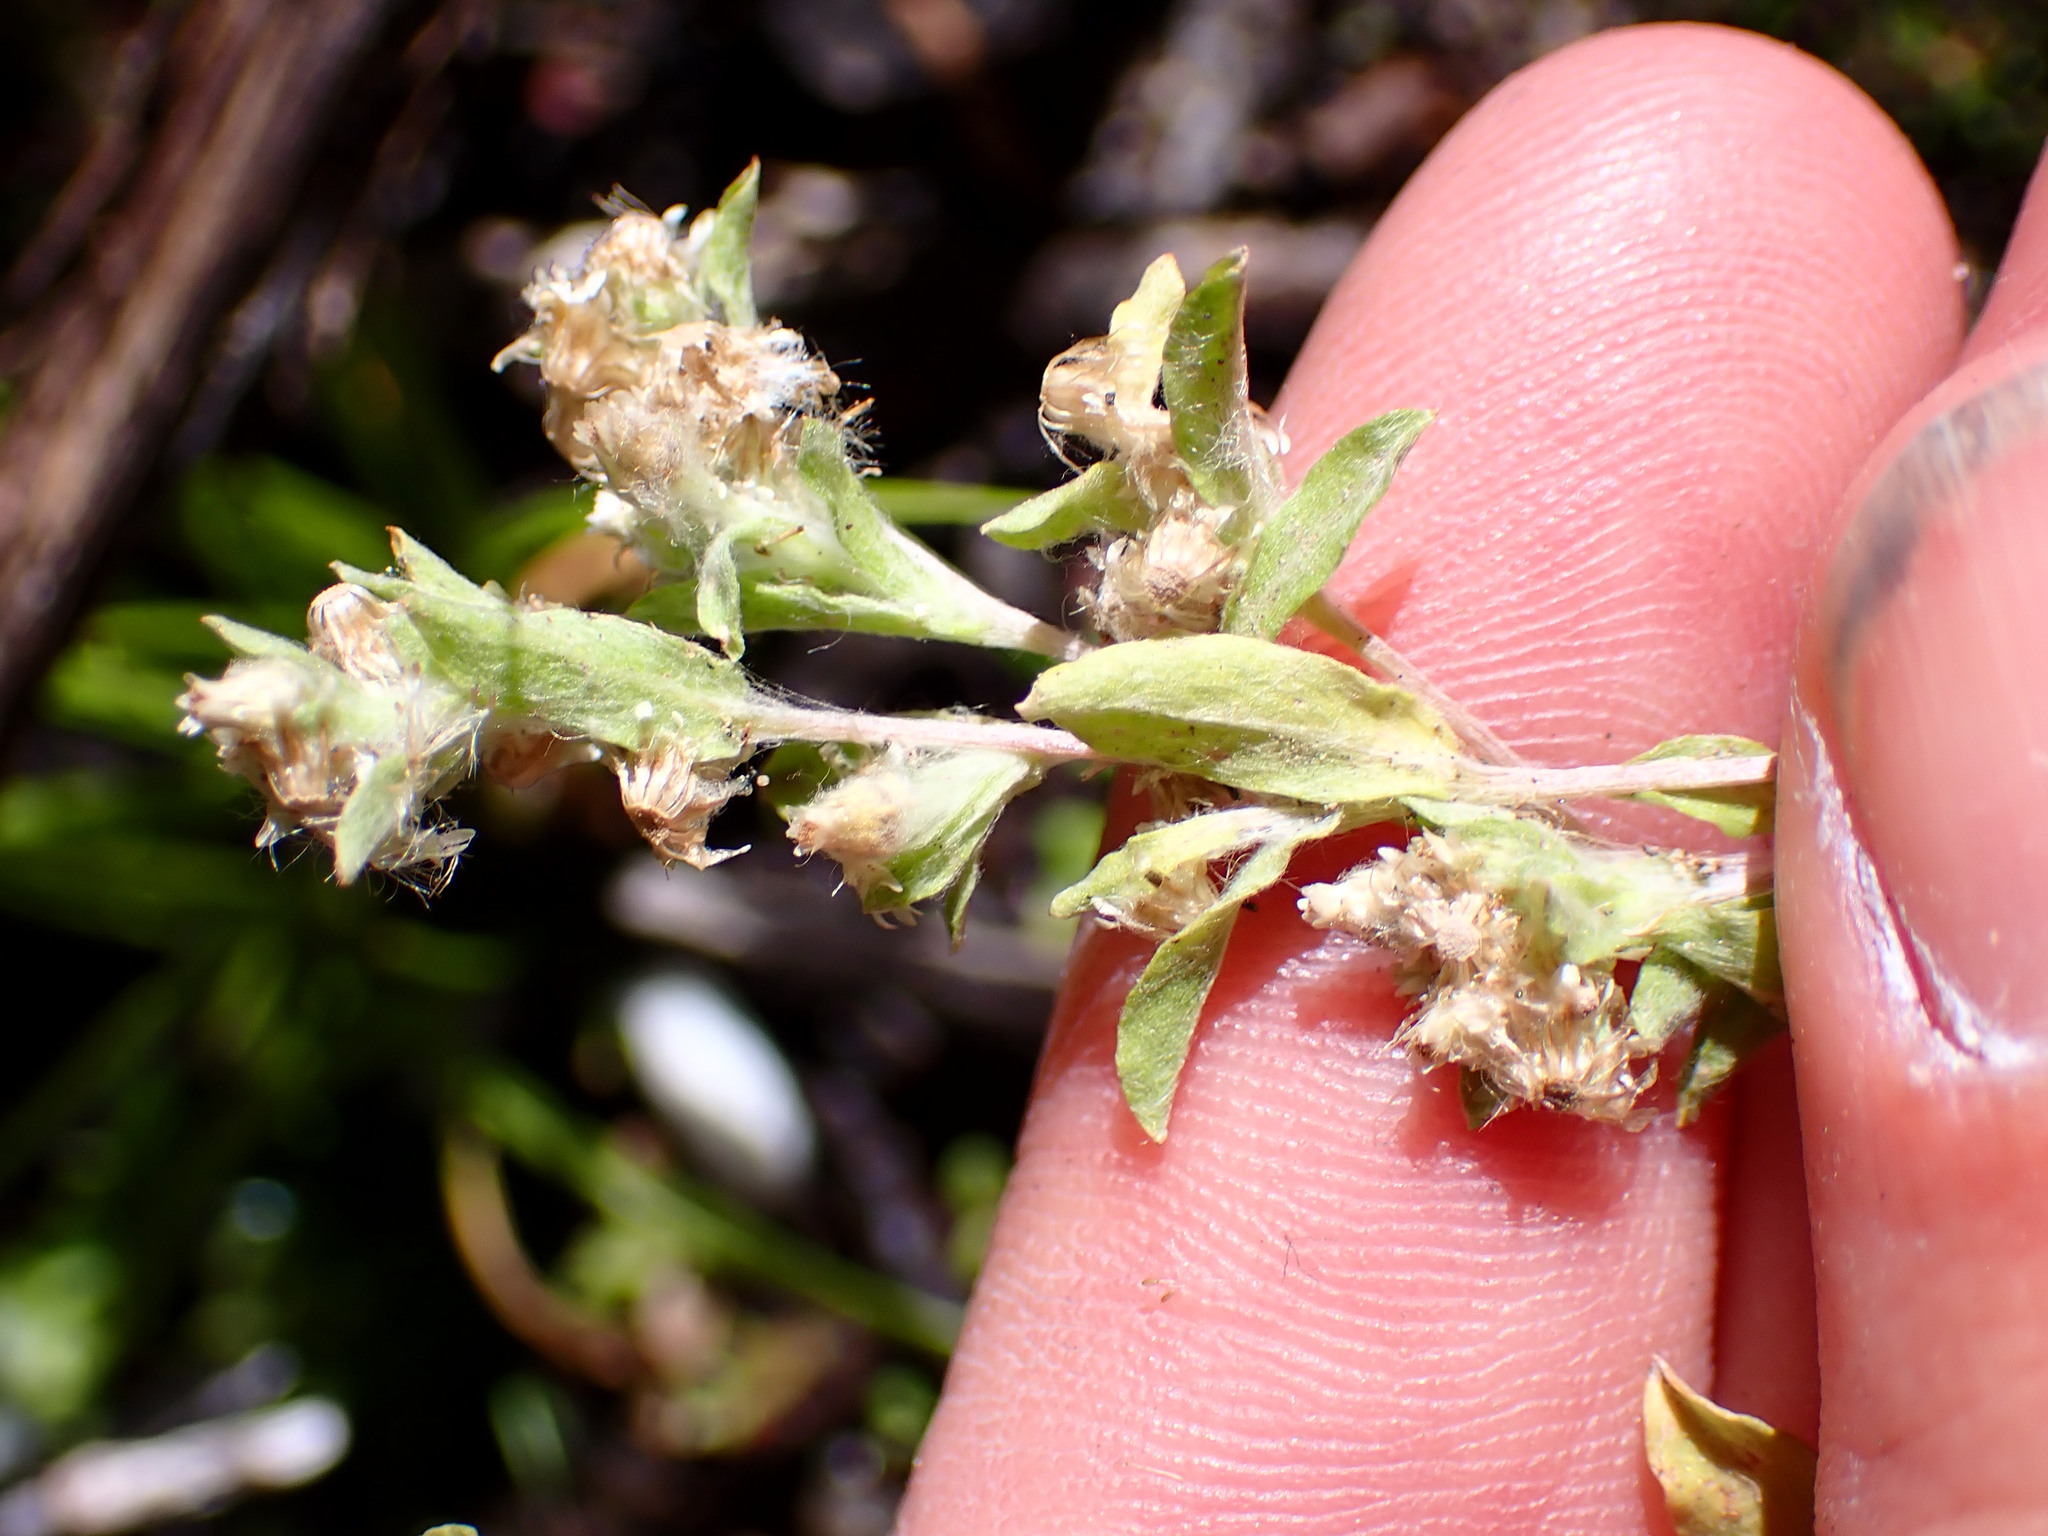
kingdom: Plantae
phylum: Tracheophyta
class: Magnoliopsida
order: Asterales
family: Asteraceae
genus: Gnaphalium
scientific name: Gnaphalium palustre
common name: Western marsh cudweed
